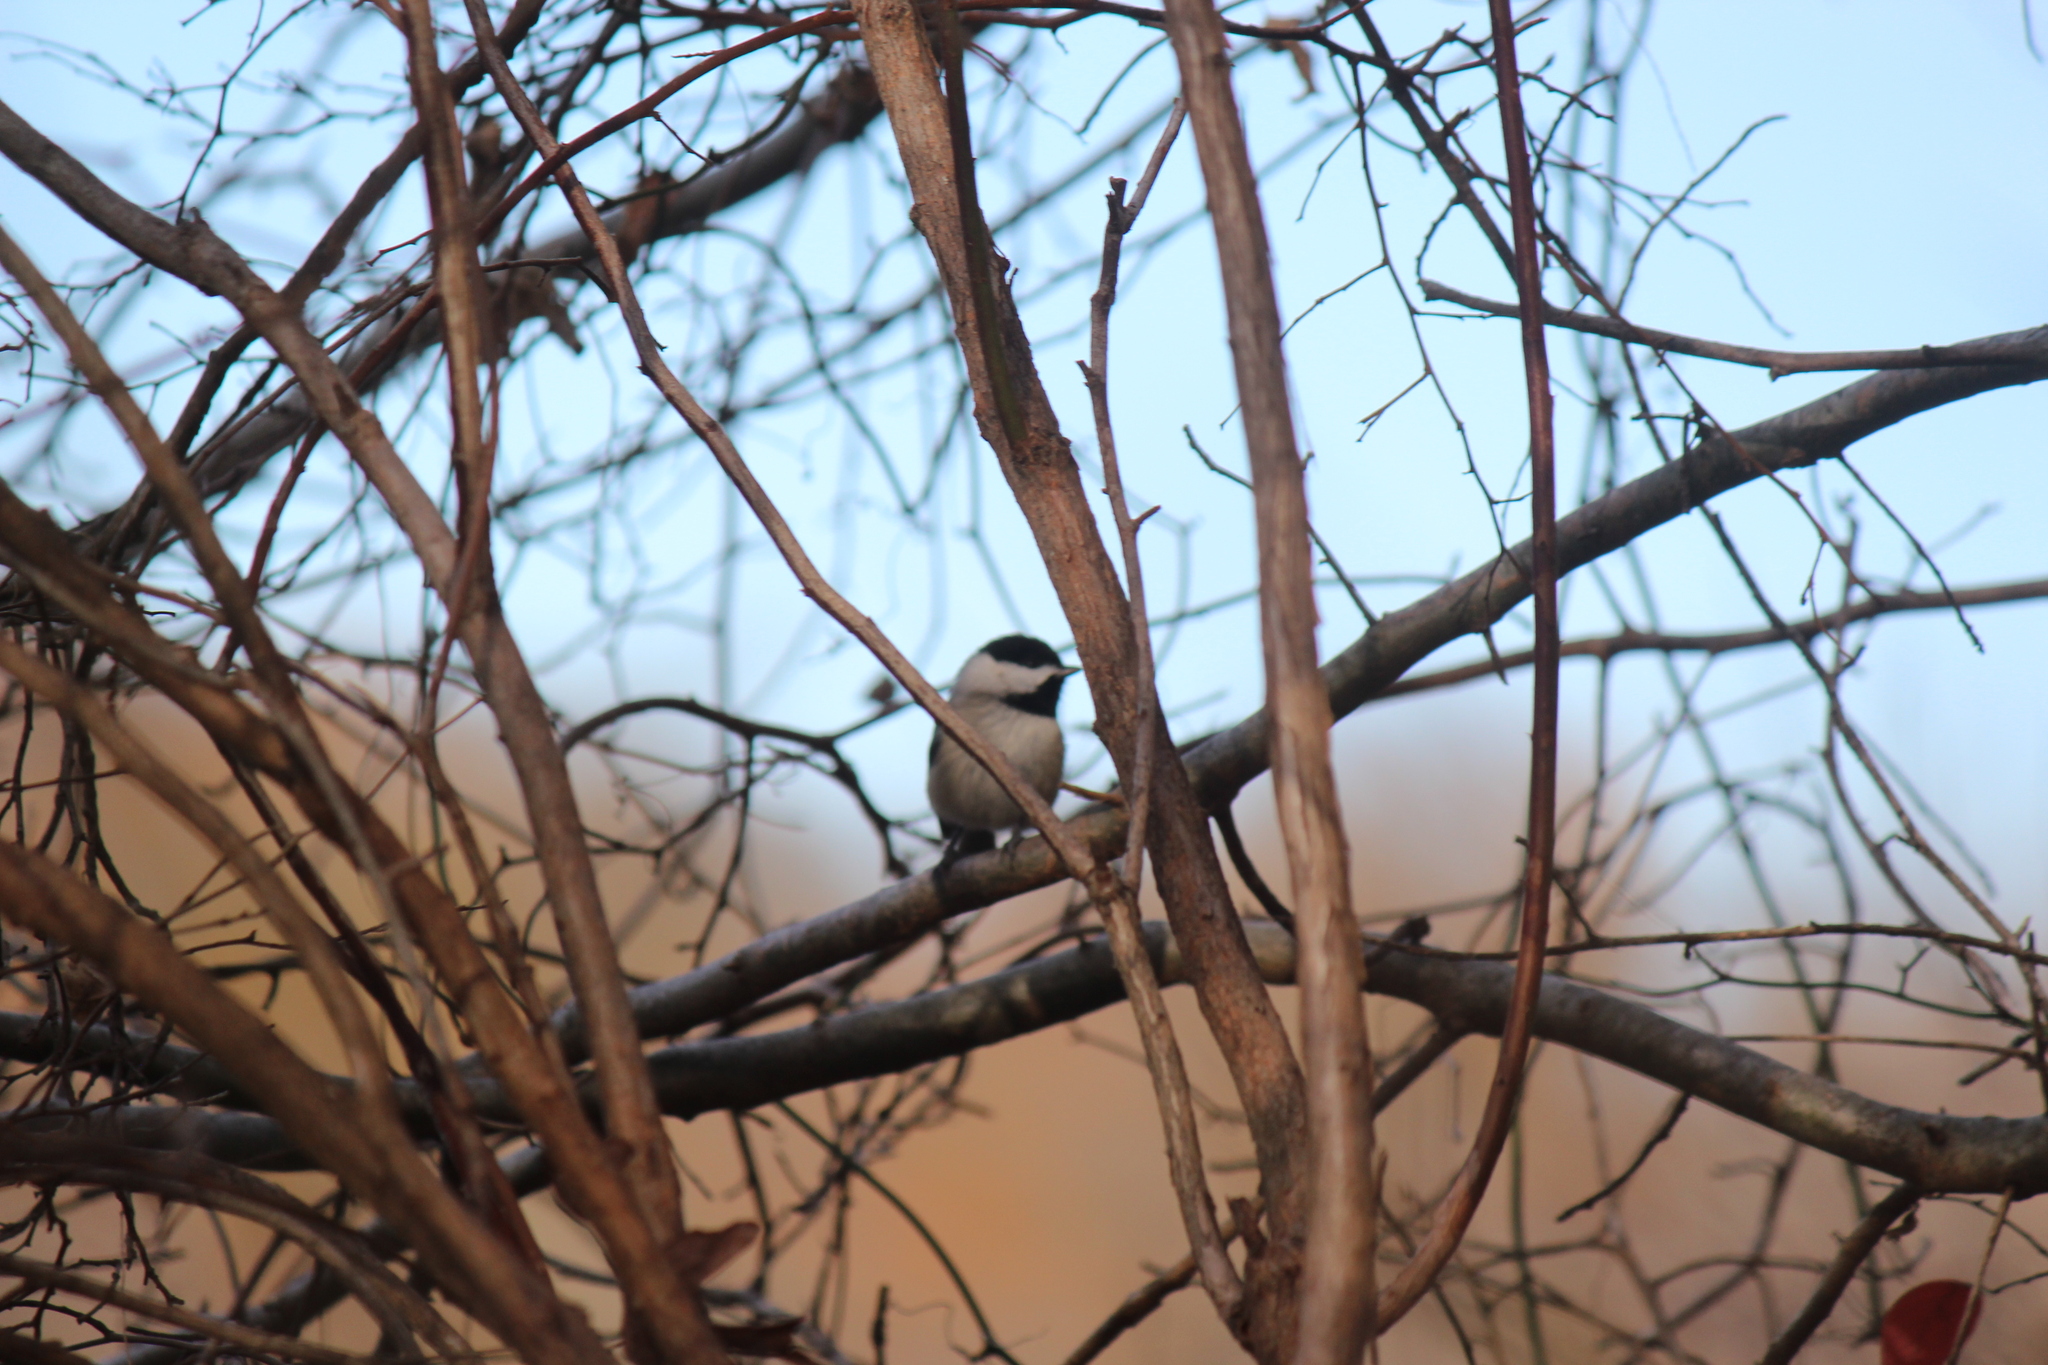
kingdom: Animalia
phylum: Chordata
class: Aves
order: Passeriformes
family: Paridae
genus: Poecile
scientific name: Poecile carolinensis
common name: Carolina chickadee
